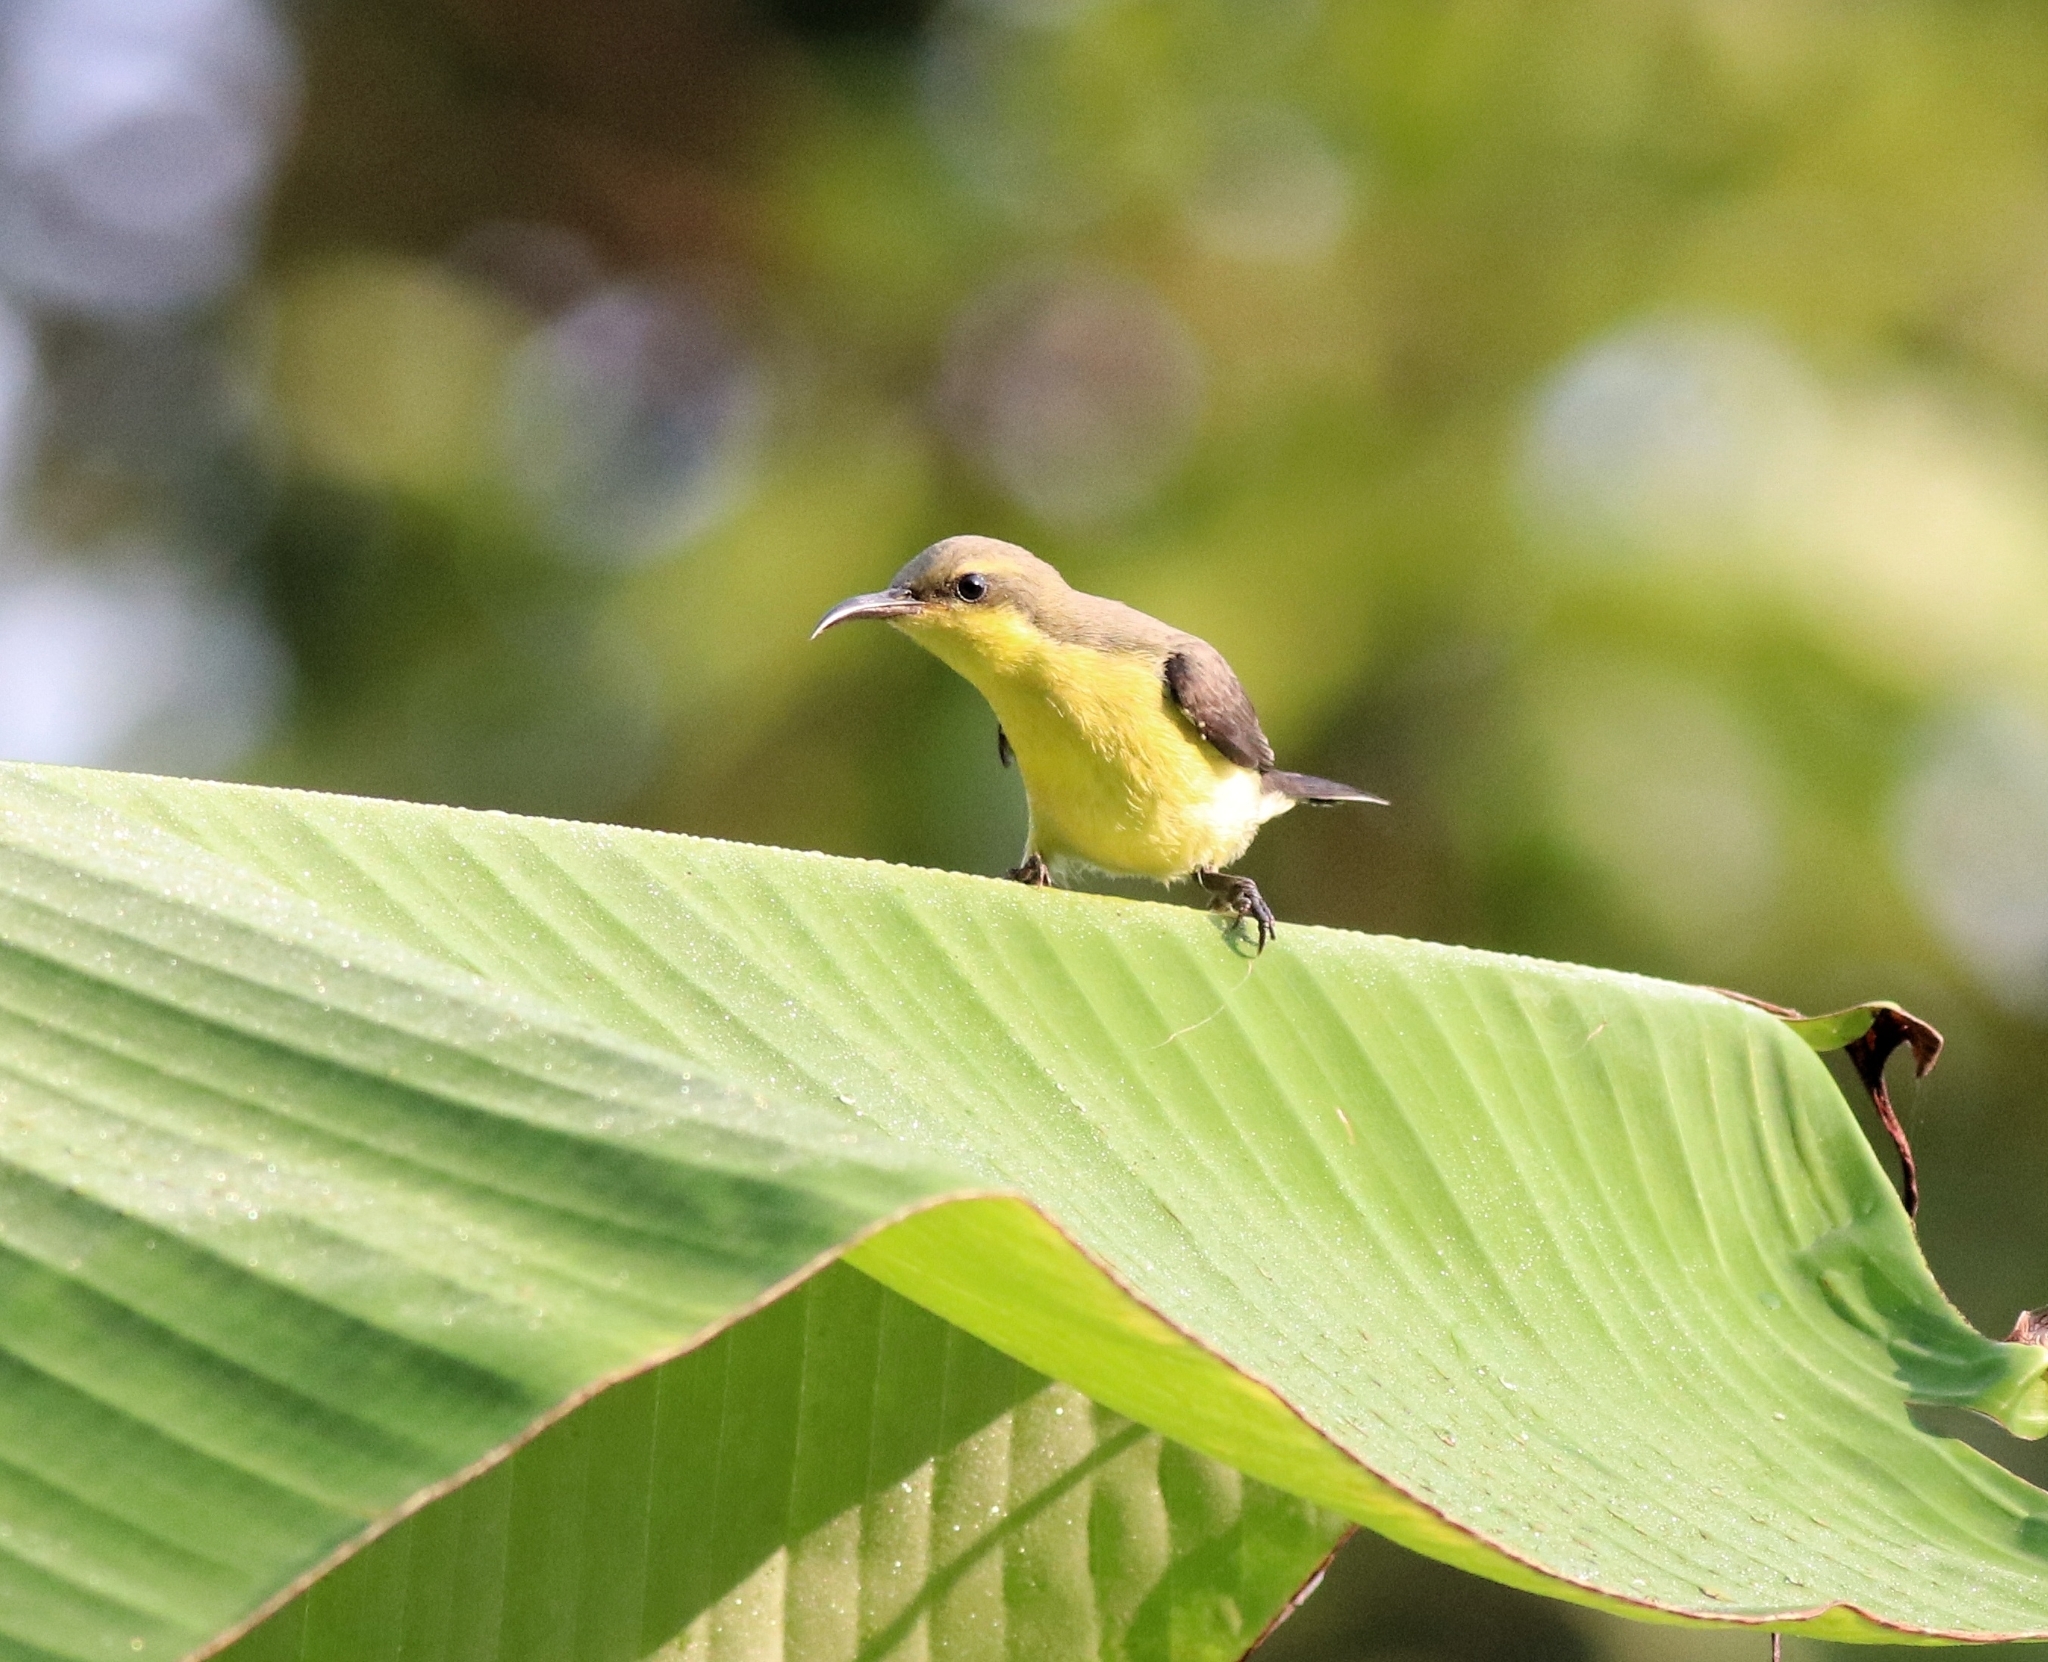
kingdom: Animalia
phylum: Chordata
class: Aves
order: Passeriformes
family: Nectariniidae
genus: Cinnyris
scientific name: Cinnyris asiaticus
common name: Purple sunbird
